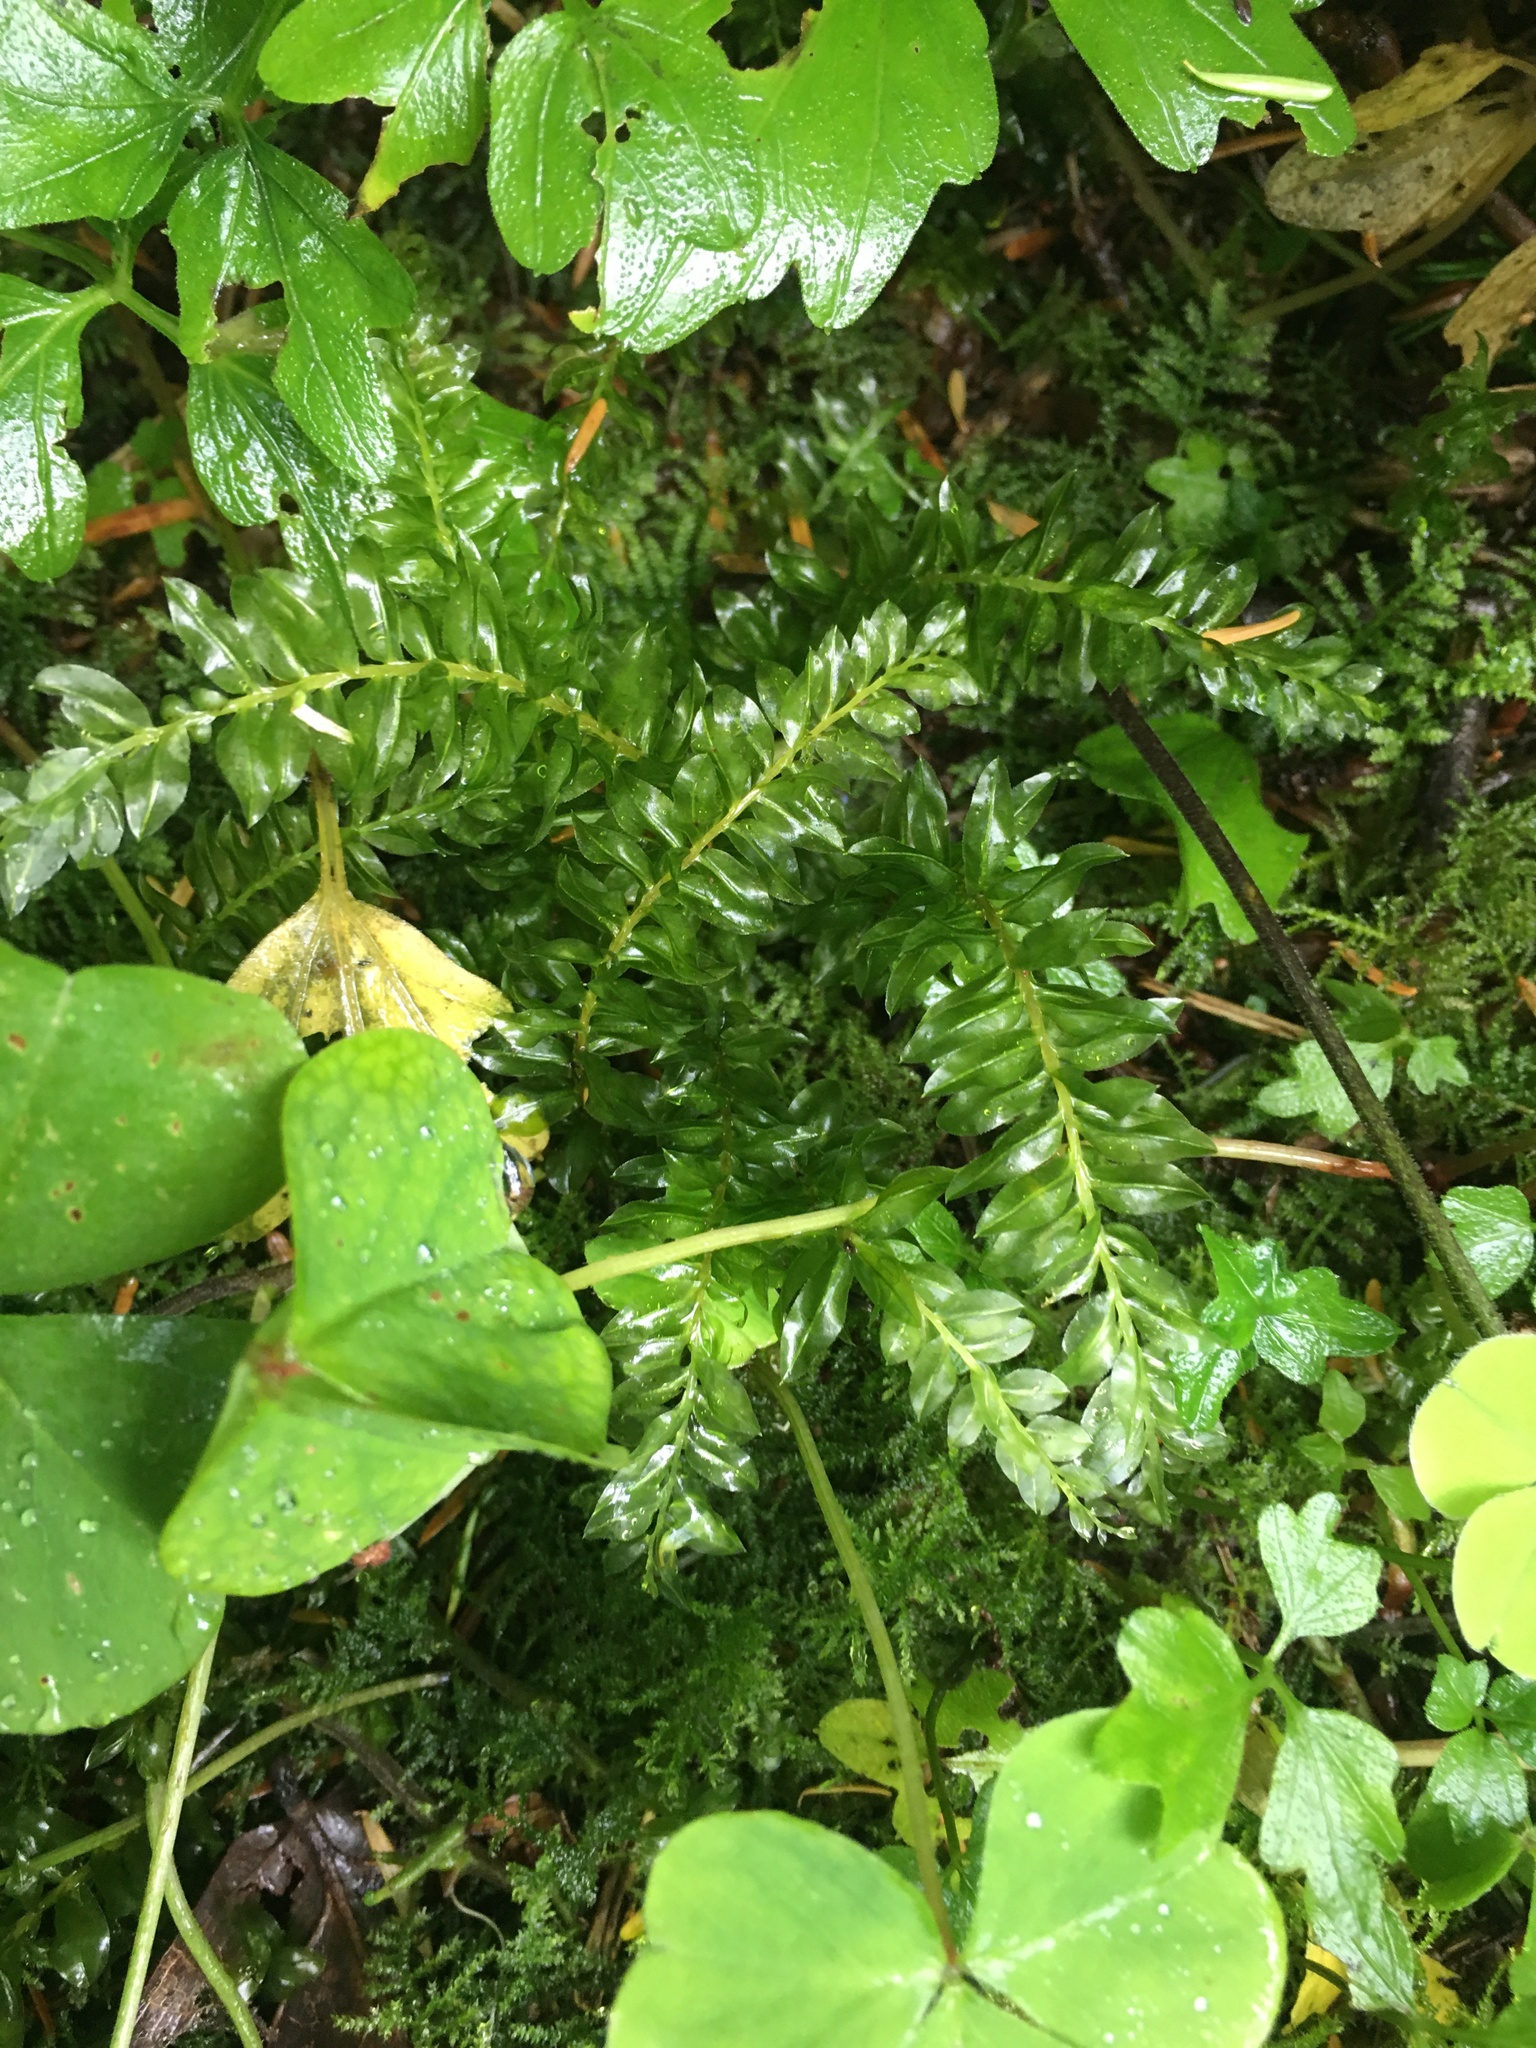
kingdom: Plantae
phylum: Bryophyta
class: Bryopsida
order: Bryales
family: Mniaceae
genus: Plagiomnium
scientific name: Plagiomnium insigne
